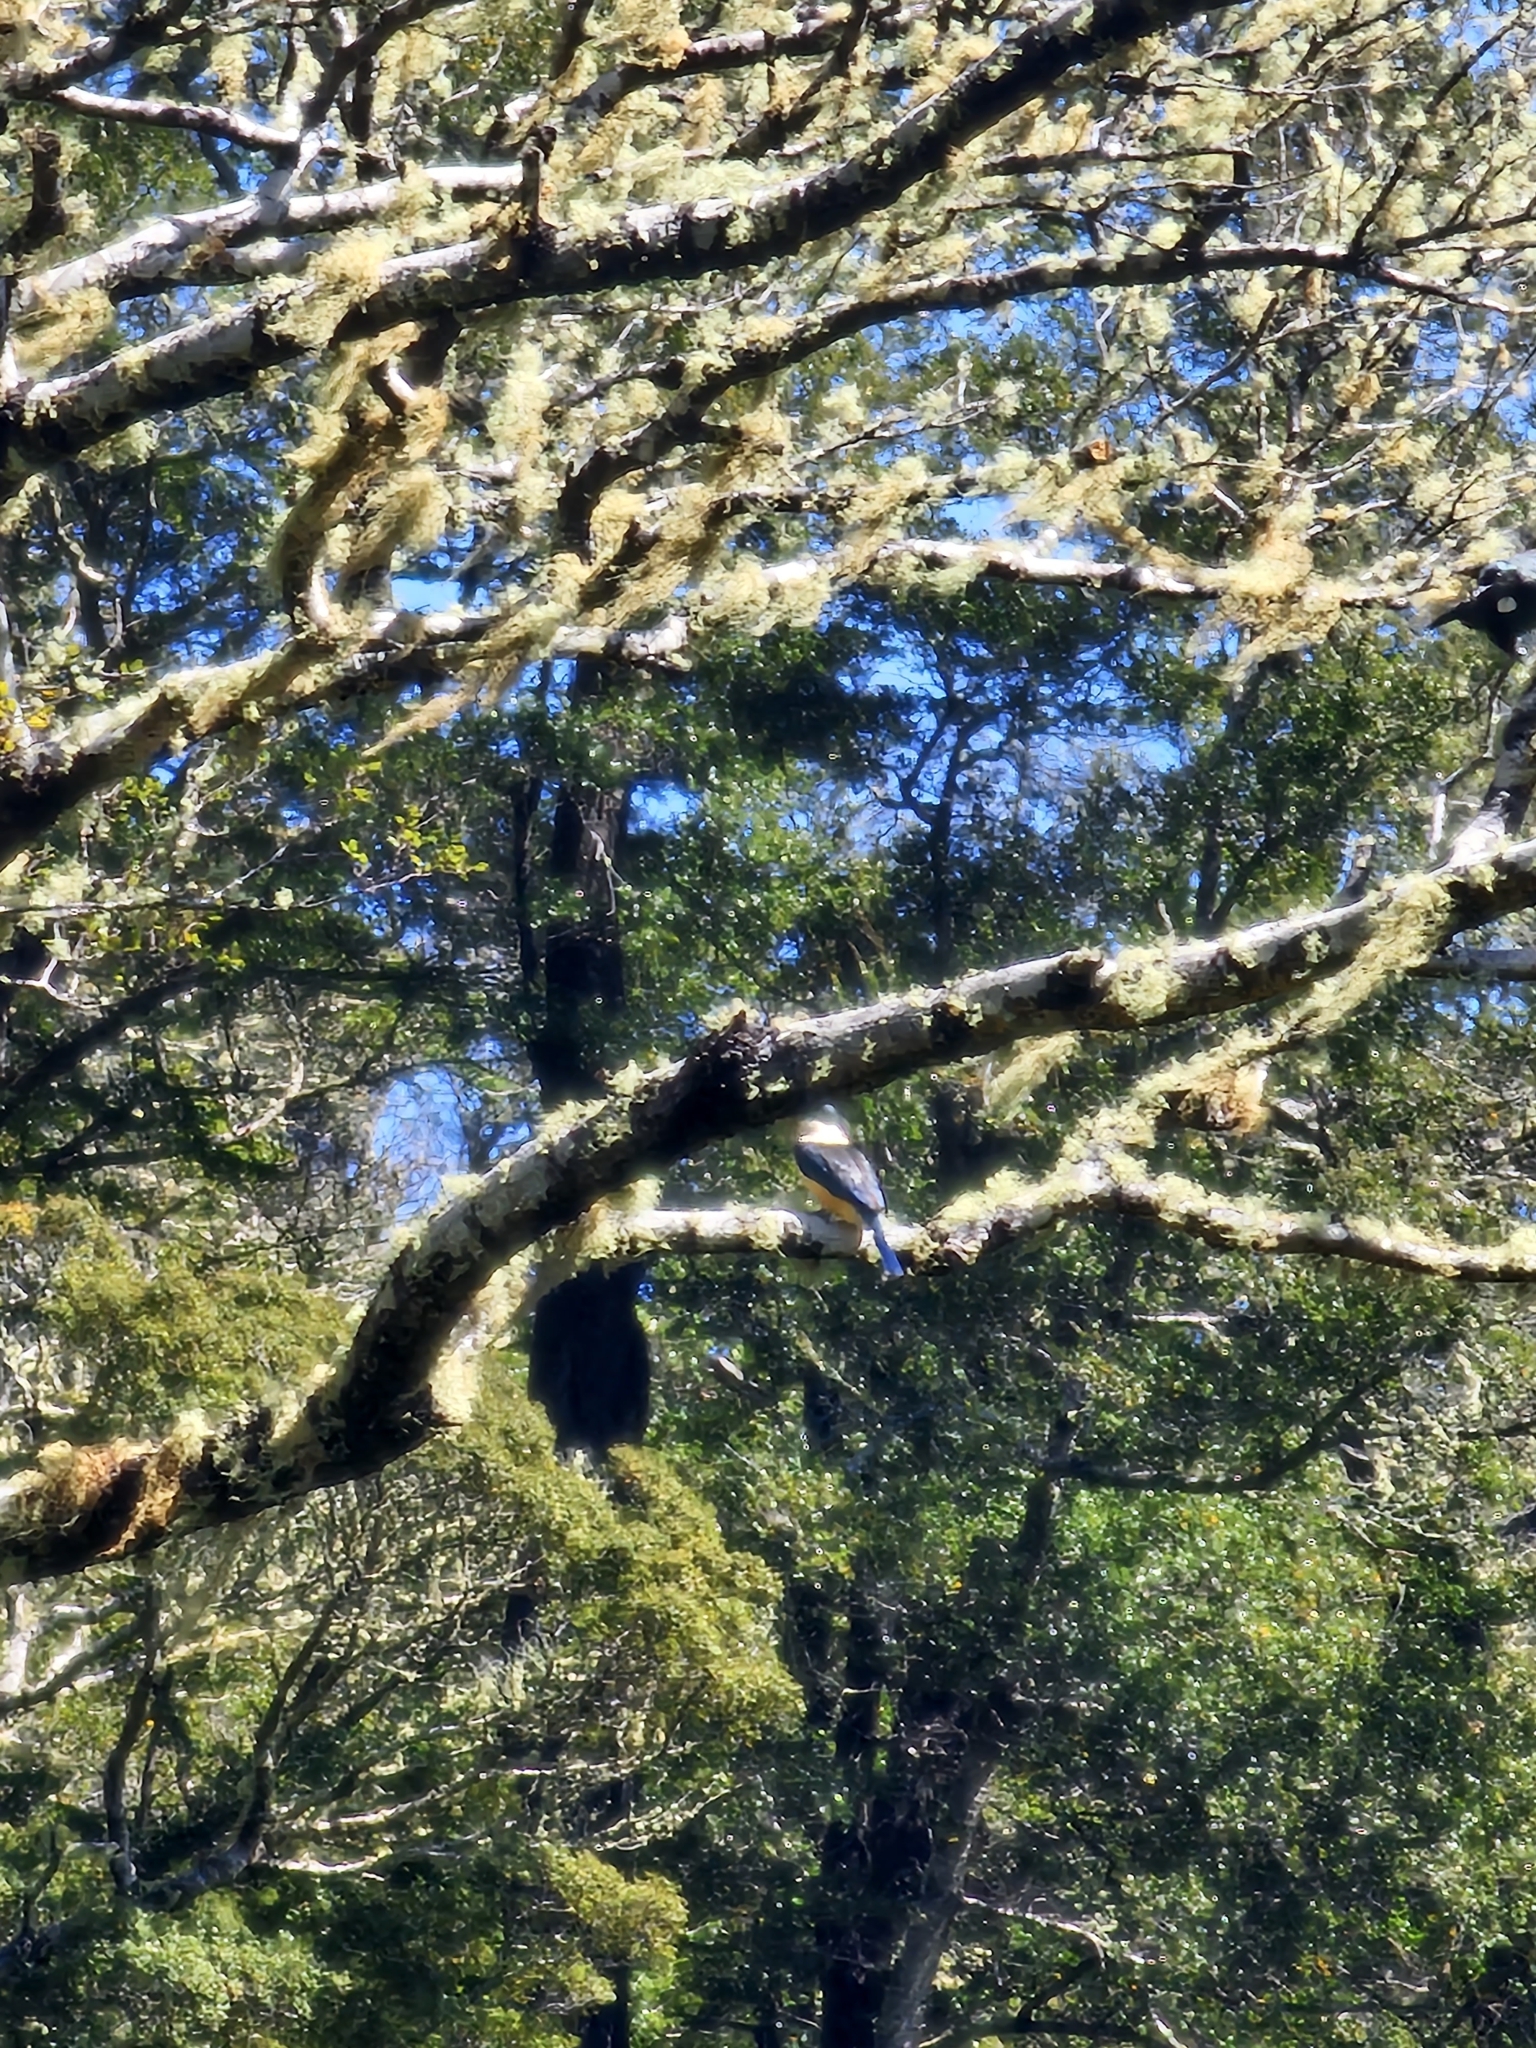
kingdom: Animalia
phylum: Chordata
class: Aves
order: Coraciiformes
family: Alcedinidae
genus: Todiramphus
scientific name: Todiramphus sanctus
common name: Sacred kingfisher
